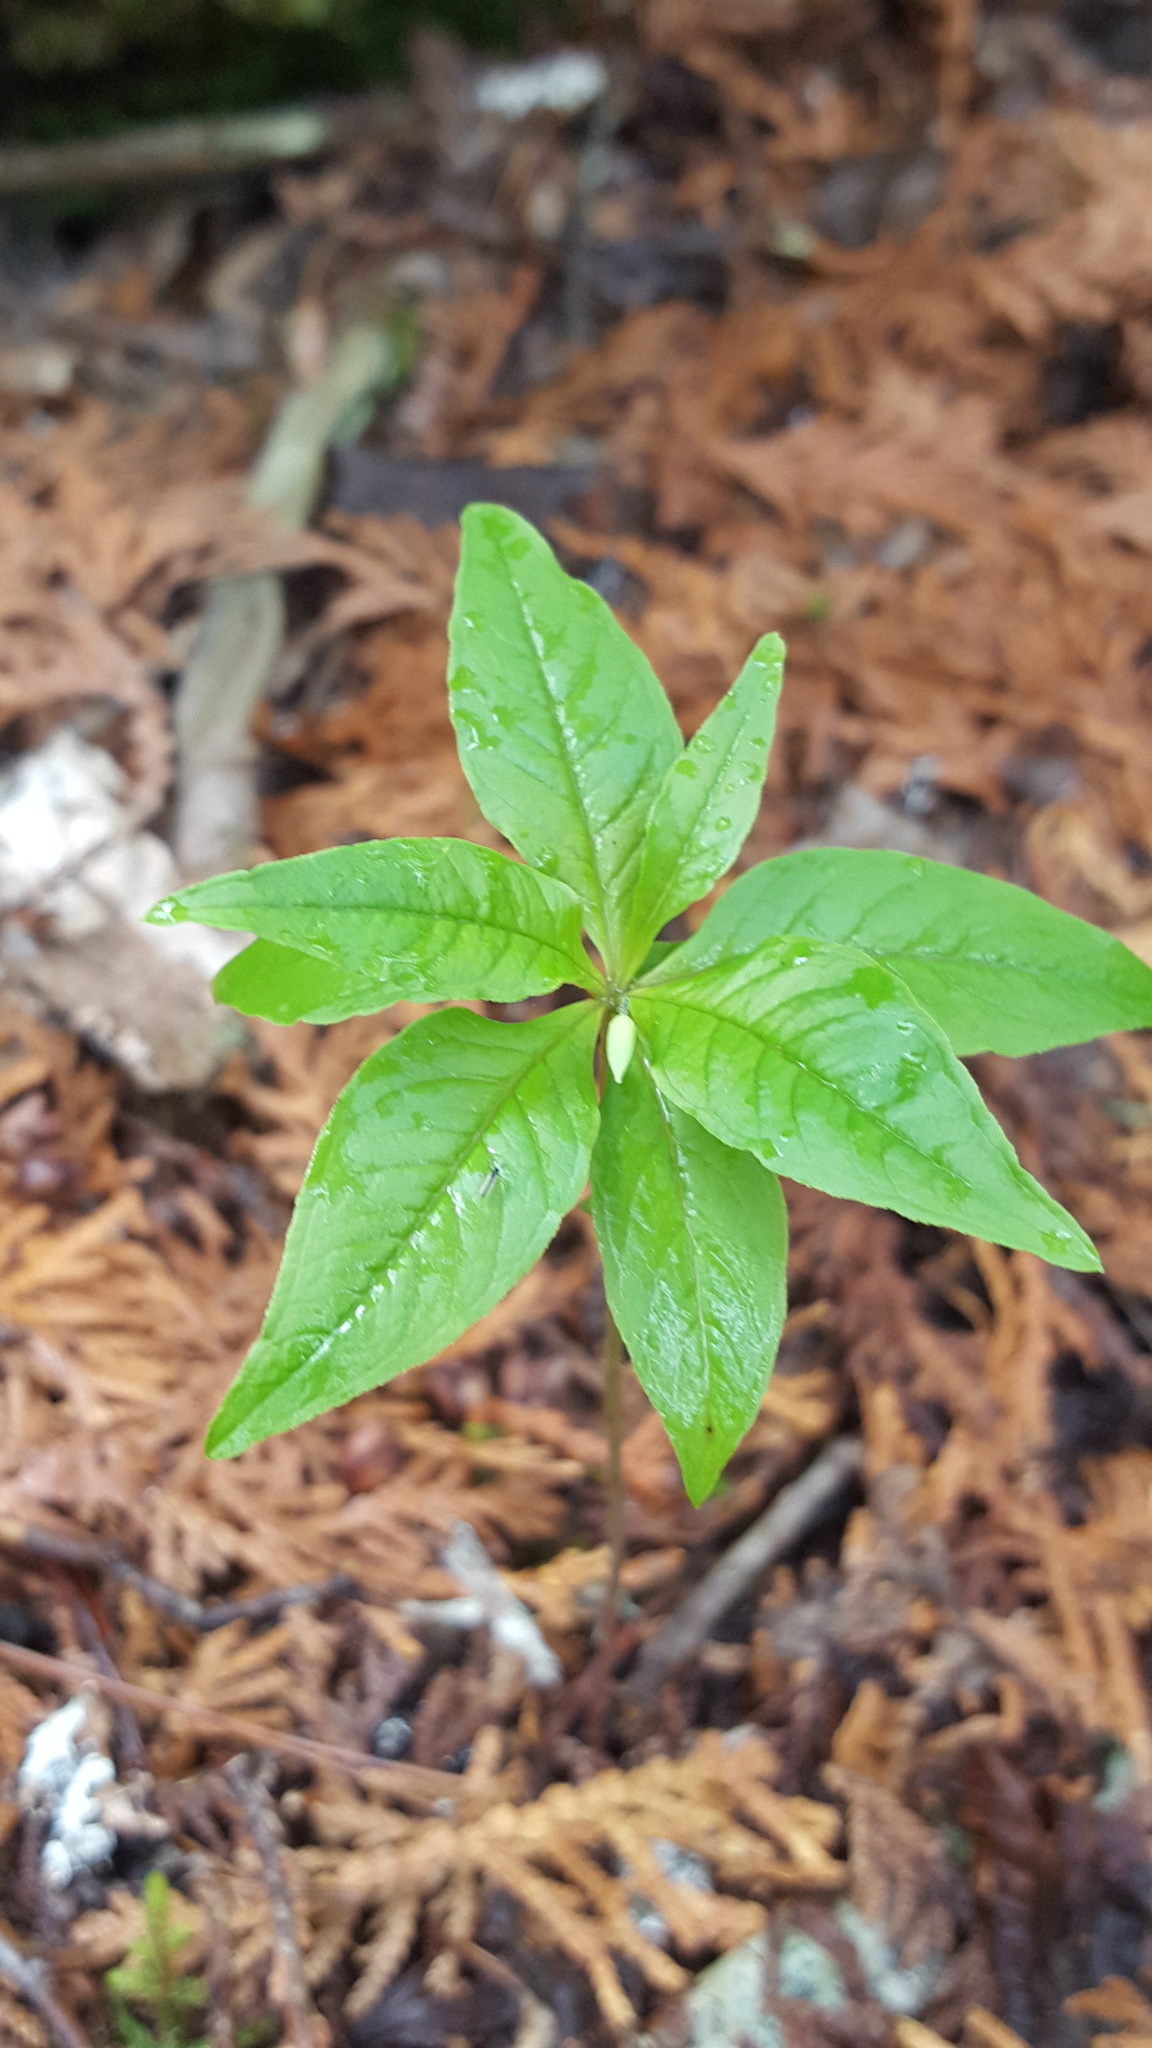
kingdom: Plantae
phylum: Tracheophyta
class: Magnoliopsida
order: Ericales
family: Primulaceae
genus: Lysimachia
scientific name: Lysimachia borealis
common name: American starflower
